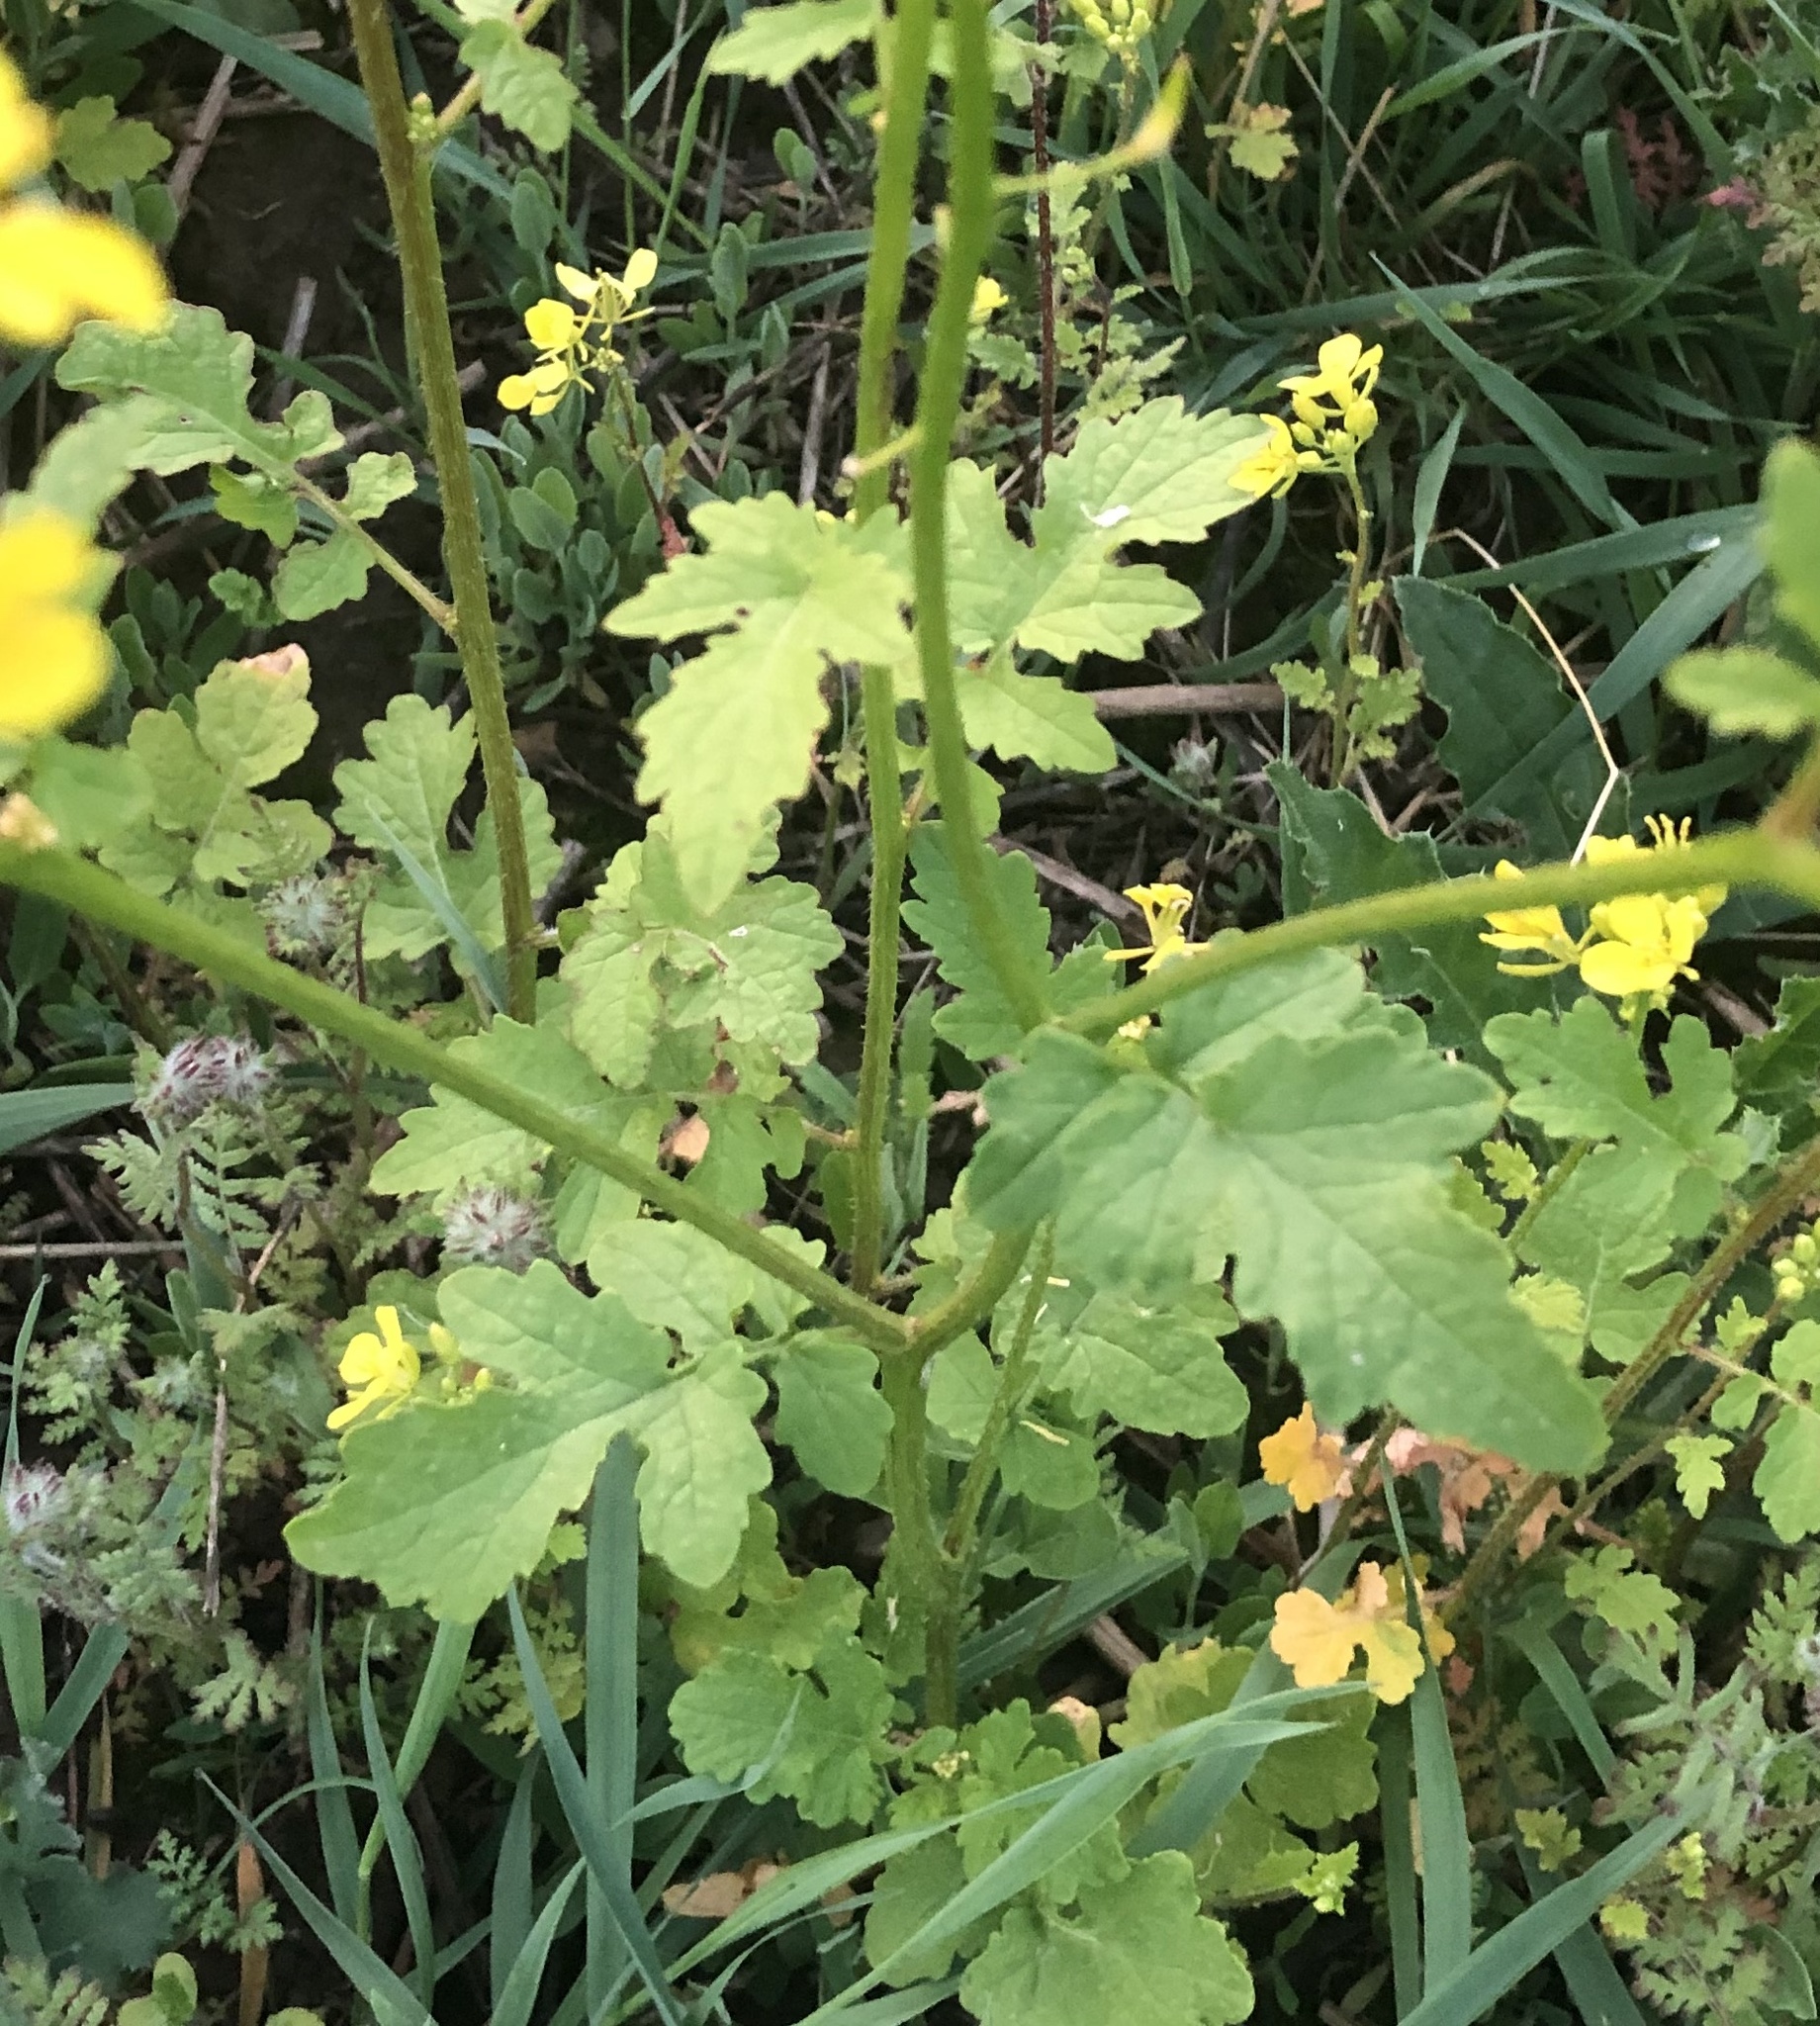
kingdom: Plantae
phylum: Tracheophyta
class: Magnoliopsida
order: Brassicales
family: Brassicaceae
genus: Sinapis
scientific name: Sinapis alba
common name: White mustard
